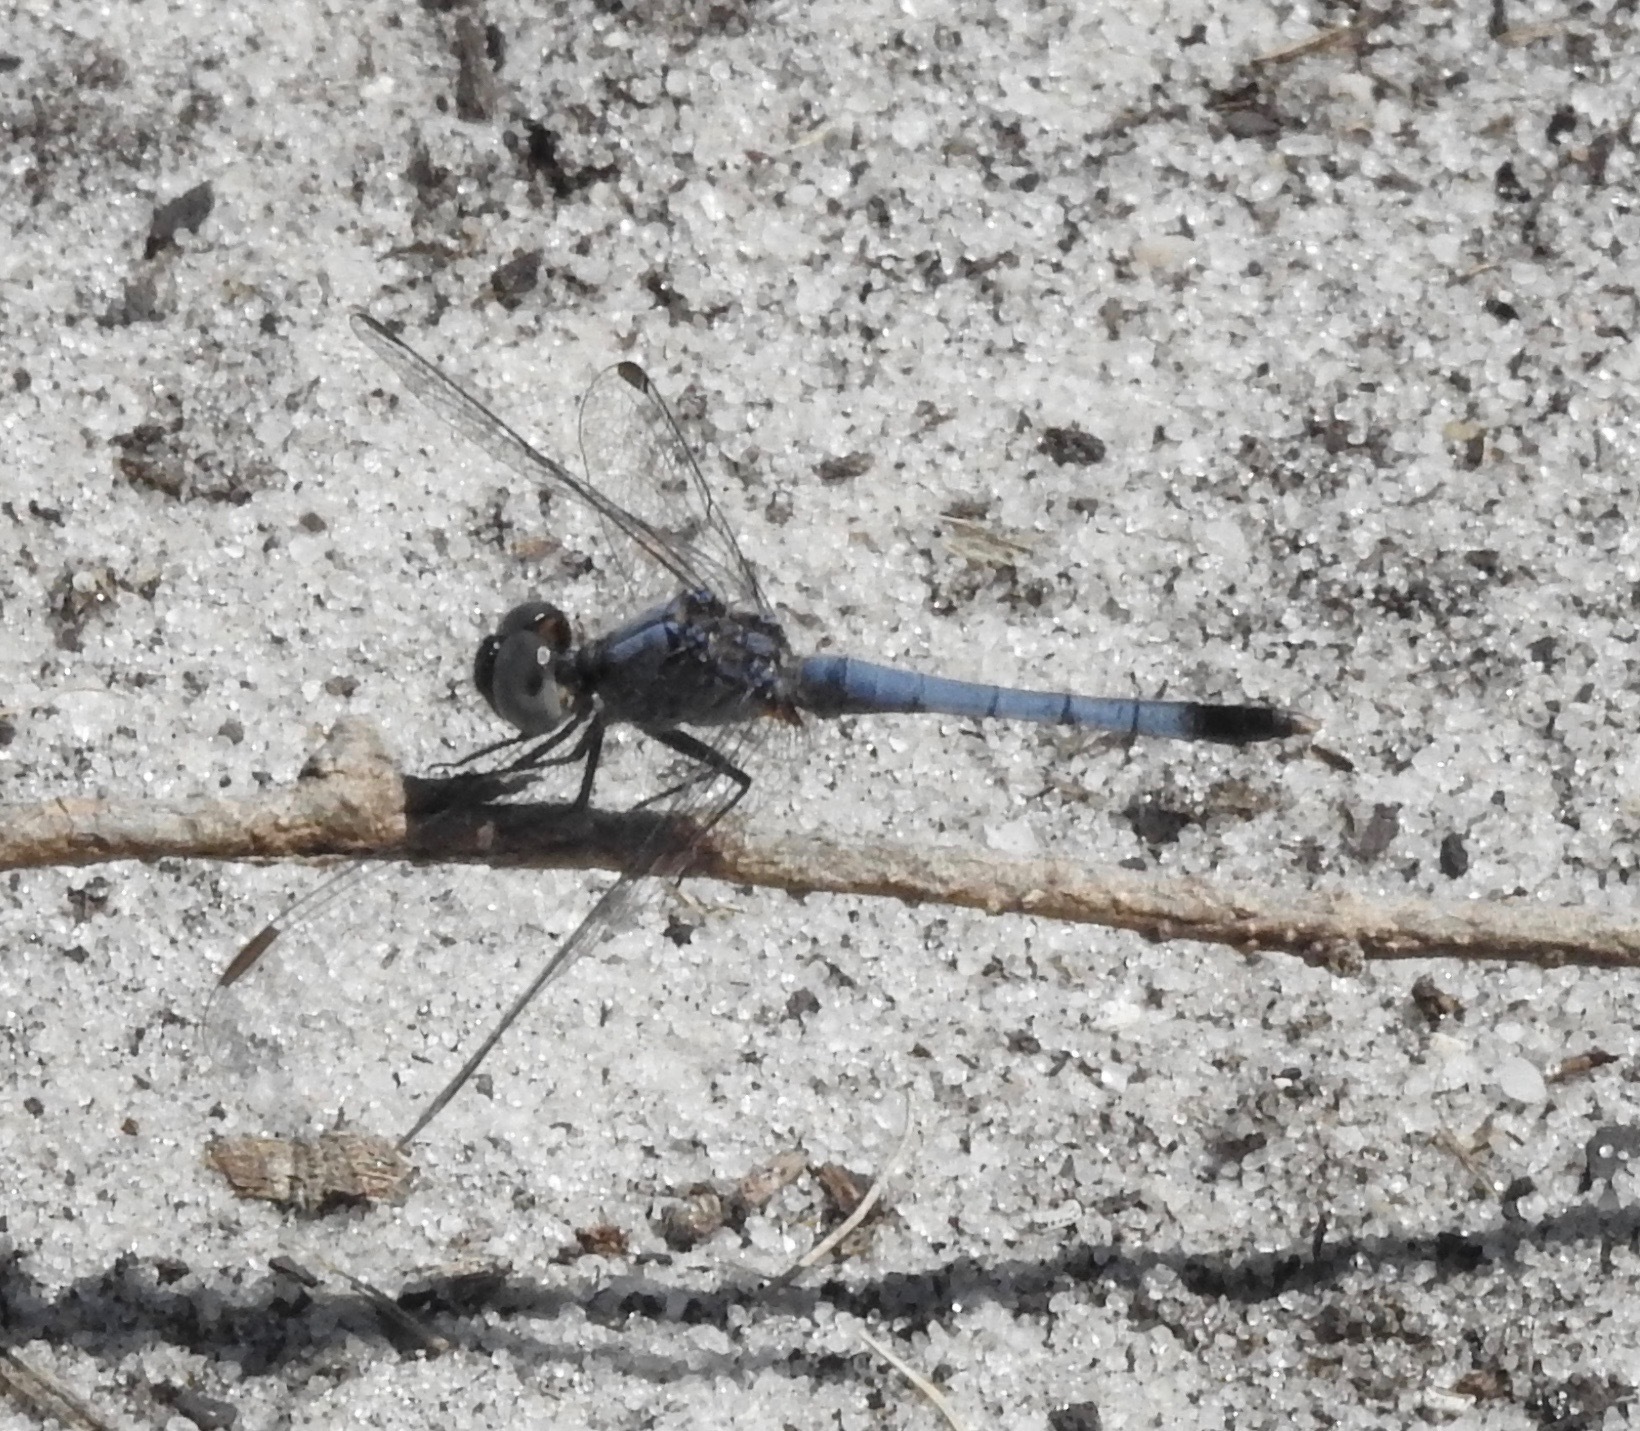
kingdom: Animalia
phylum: Arthropoda
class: Insecta
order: Odonata
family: Libellulidae
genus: Erythrodiplax
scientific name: Erythrodiplax minuscula
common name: Little blue dragonlet
